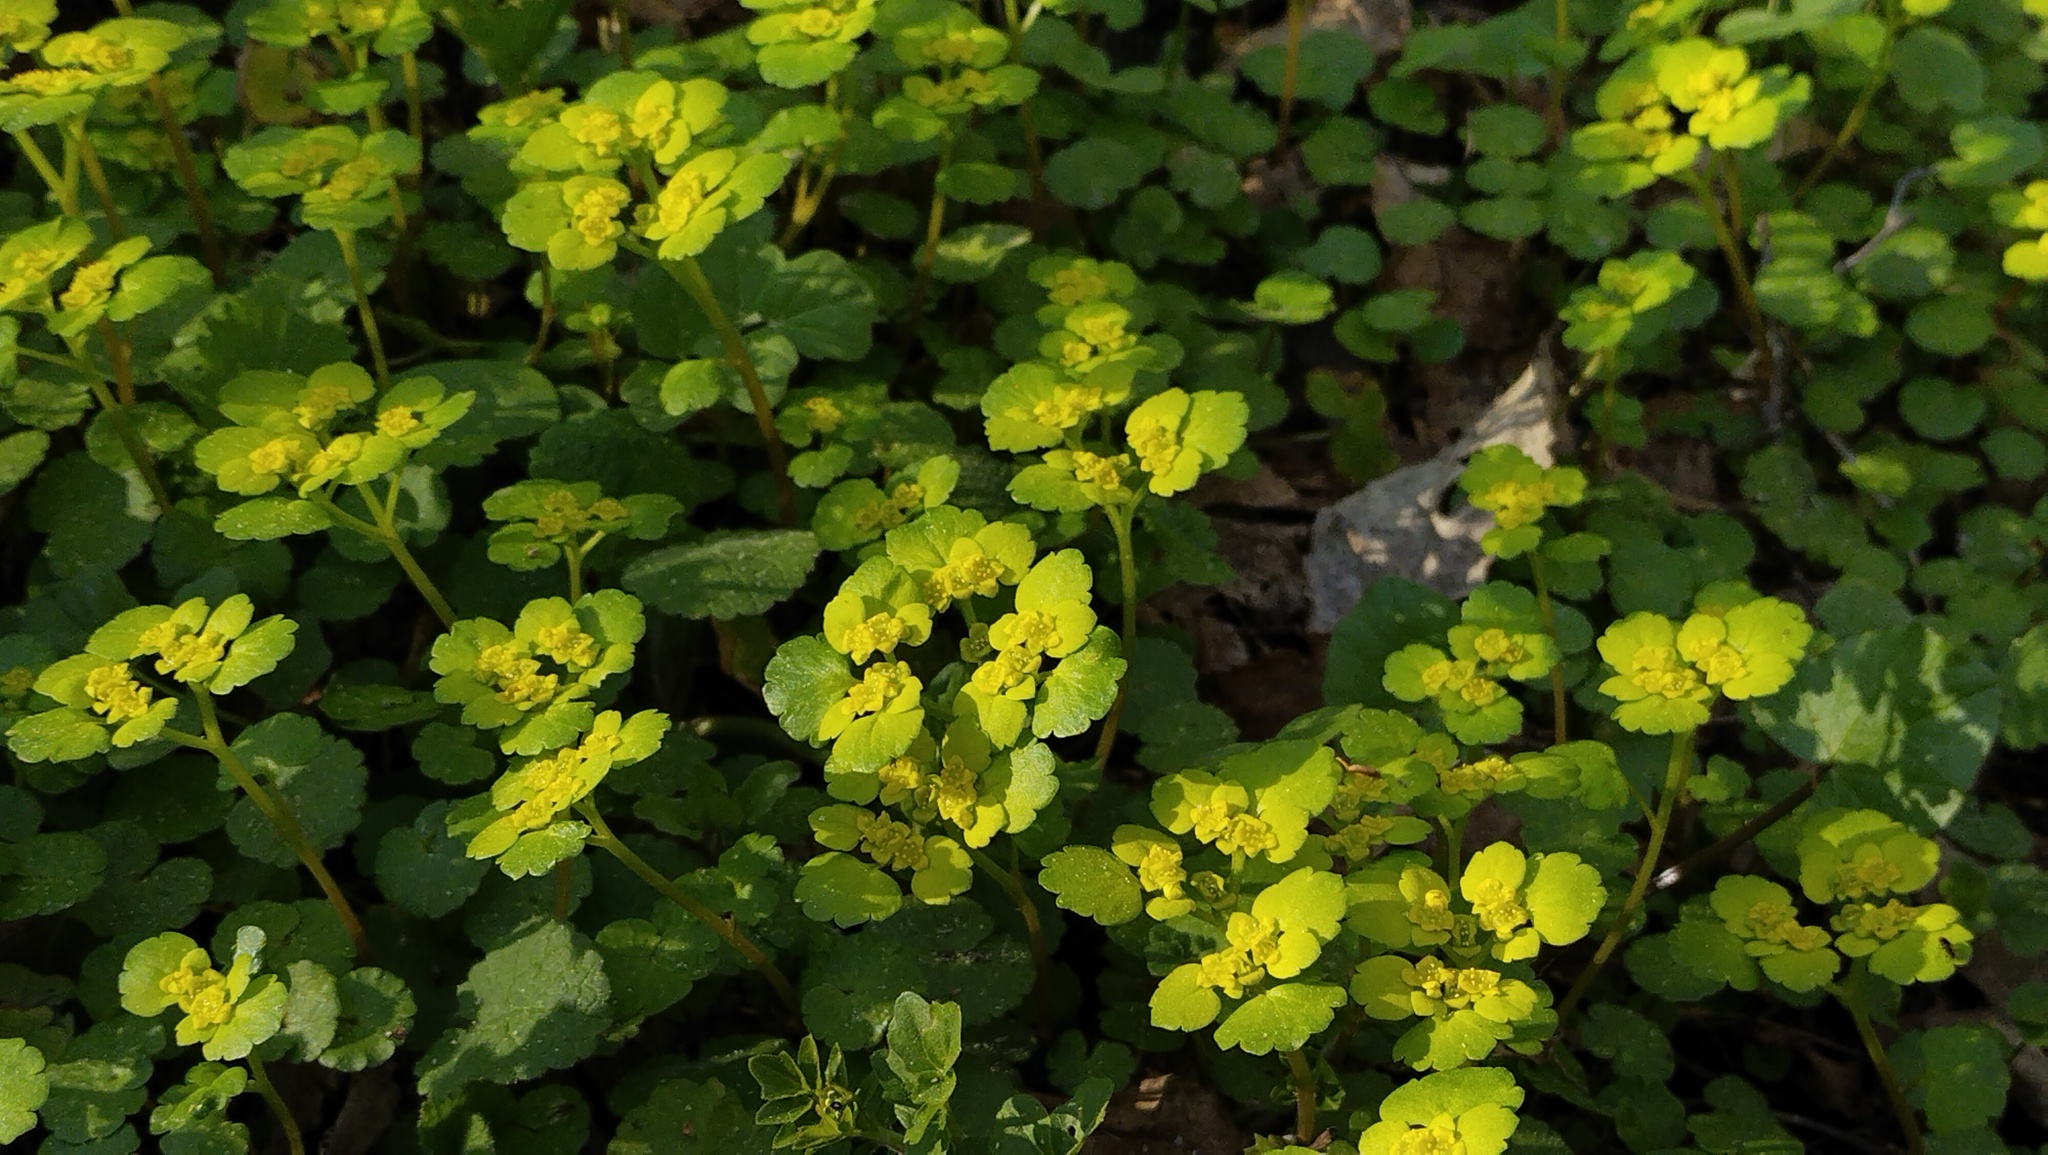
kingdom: Plantae
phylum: Tracheophyta
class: Magnoliopsida
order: Saxifragales
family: Saxifragaceae
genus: Chrysosplenium
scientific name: Chrysosplenium alternifolium
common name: Alternate-leaved golden-saxifrage
